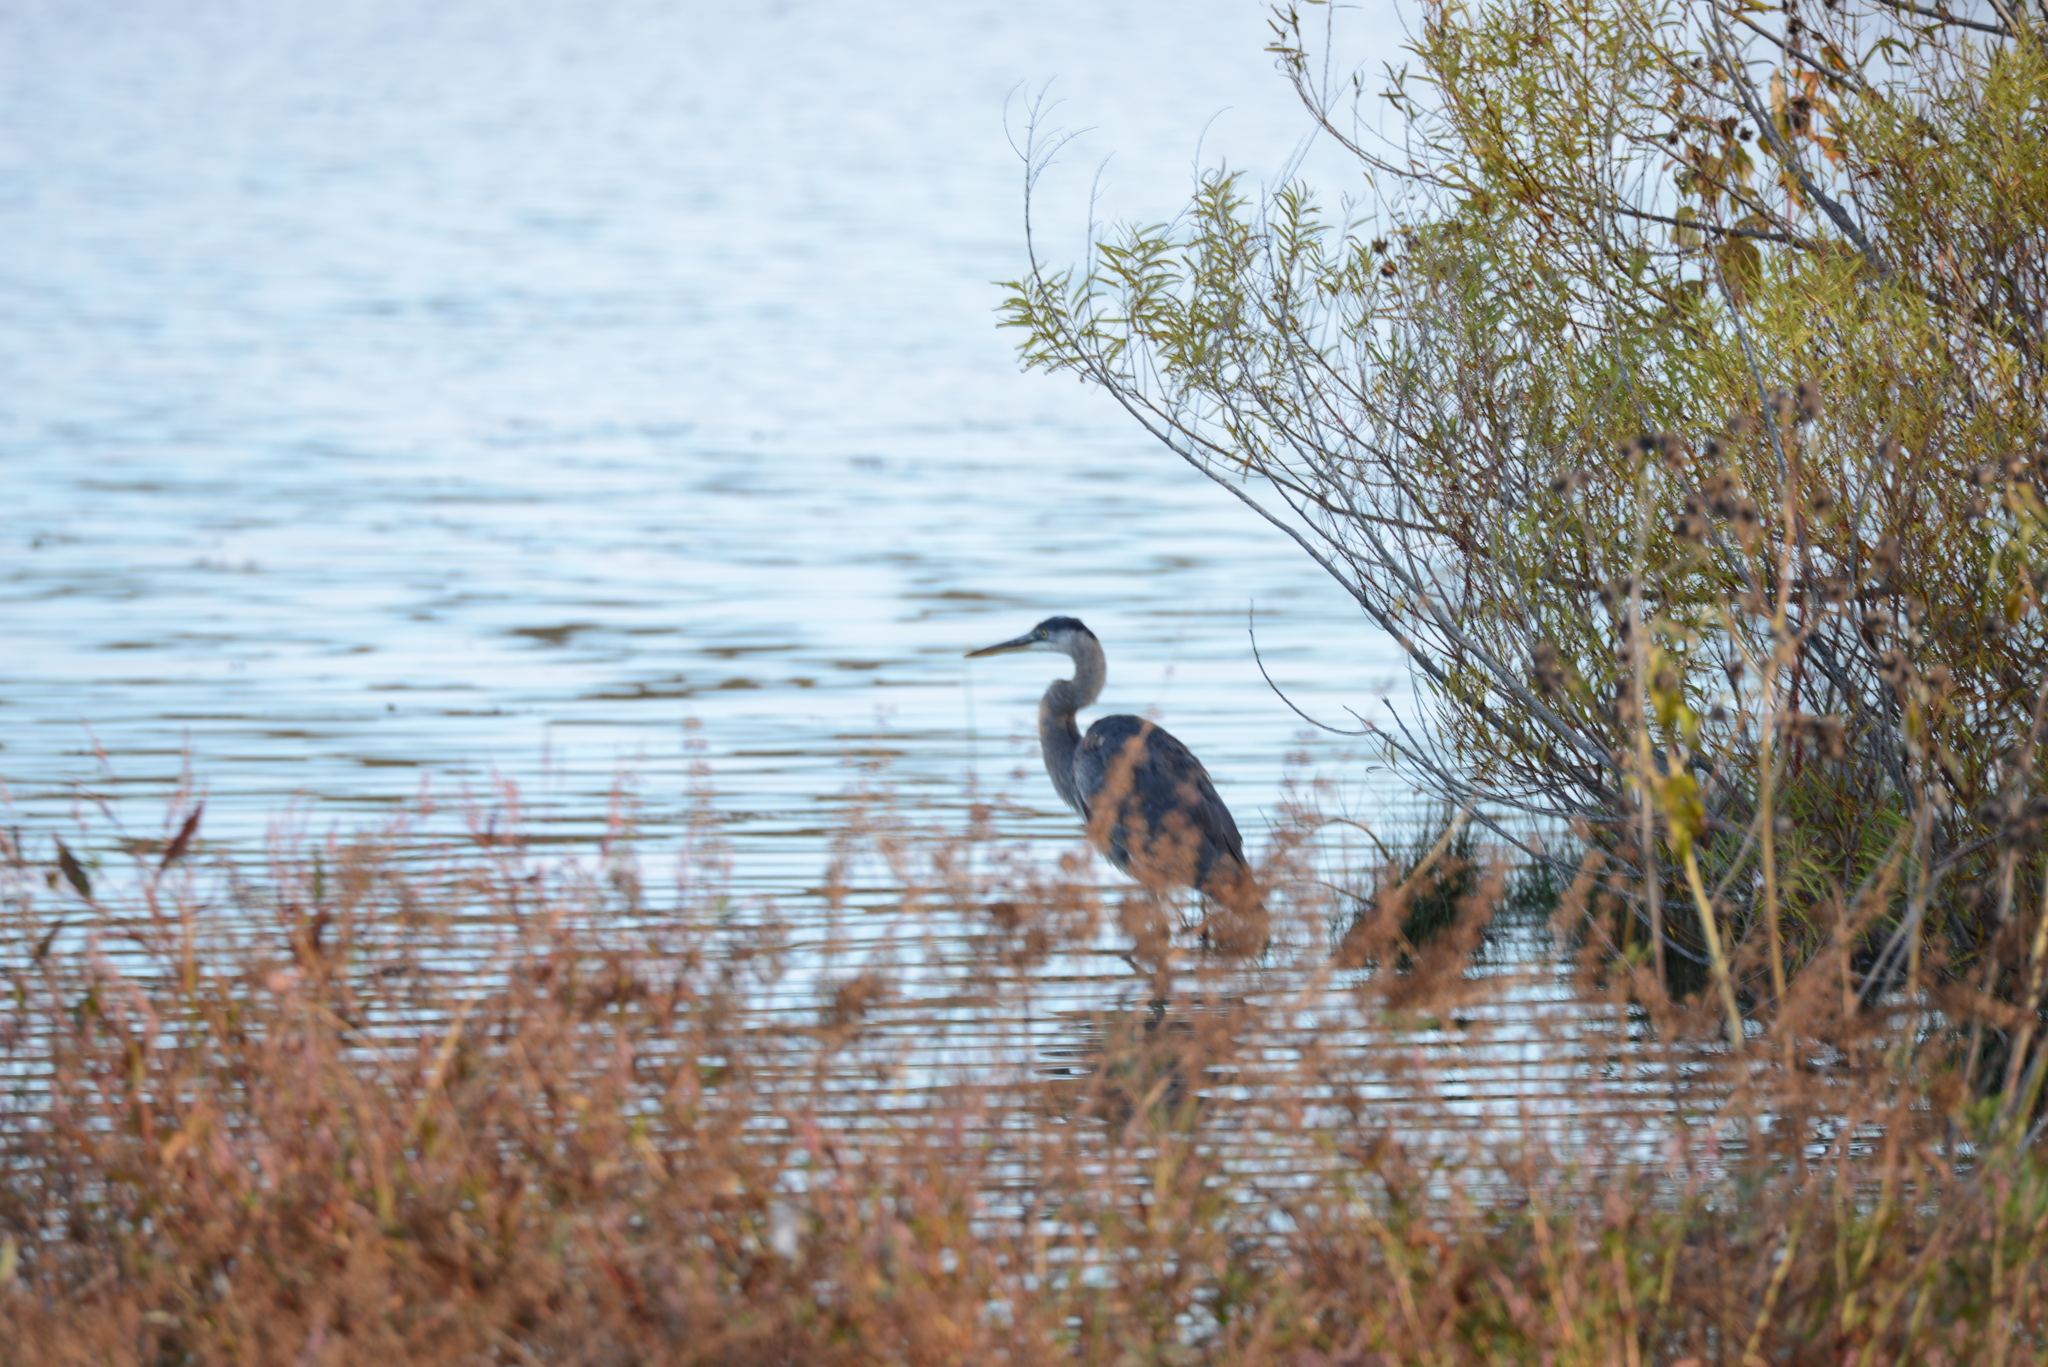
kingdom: Animalia
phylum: Chordata
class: Aves
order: Pelecaniformes
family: Ardeidae
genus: Ardea
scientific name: Ardea herodias
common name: Great blue heron
